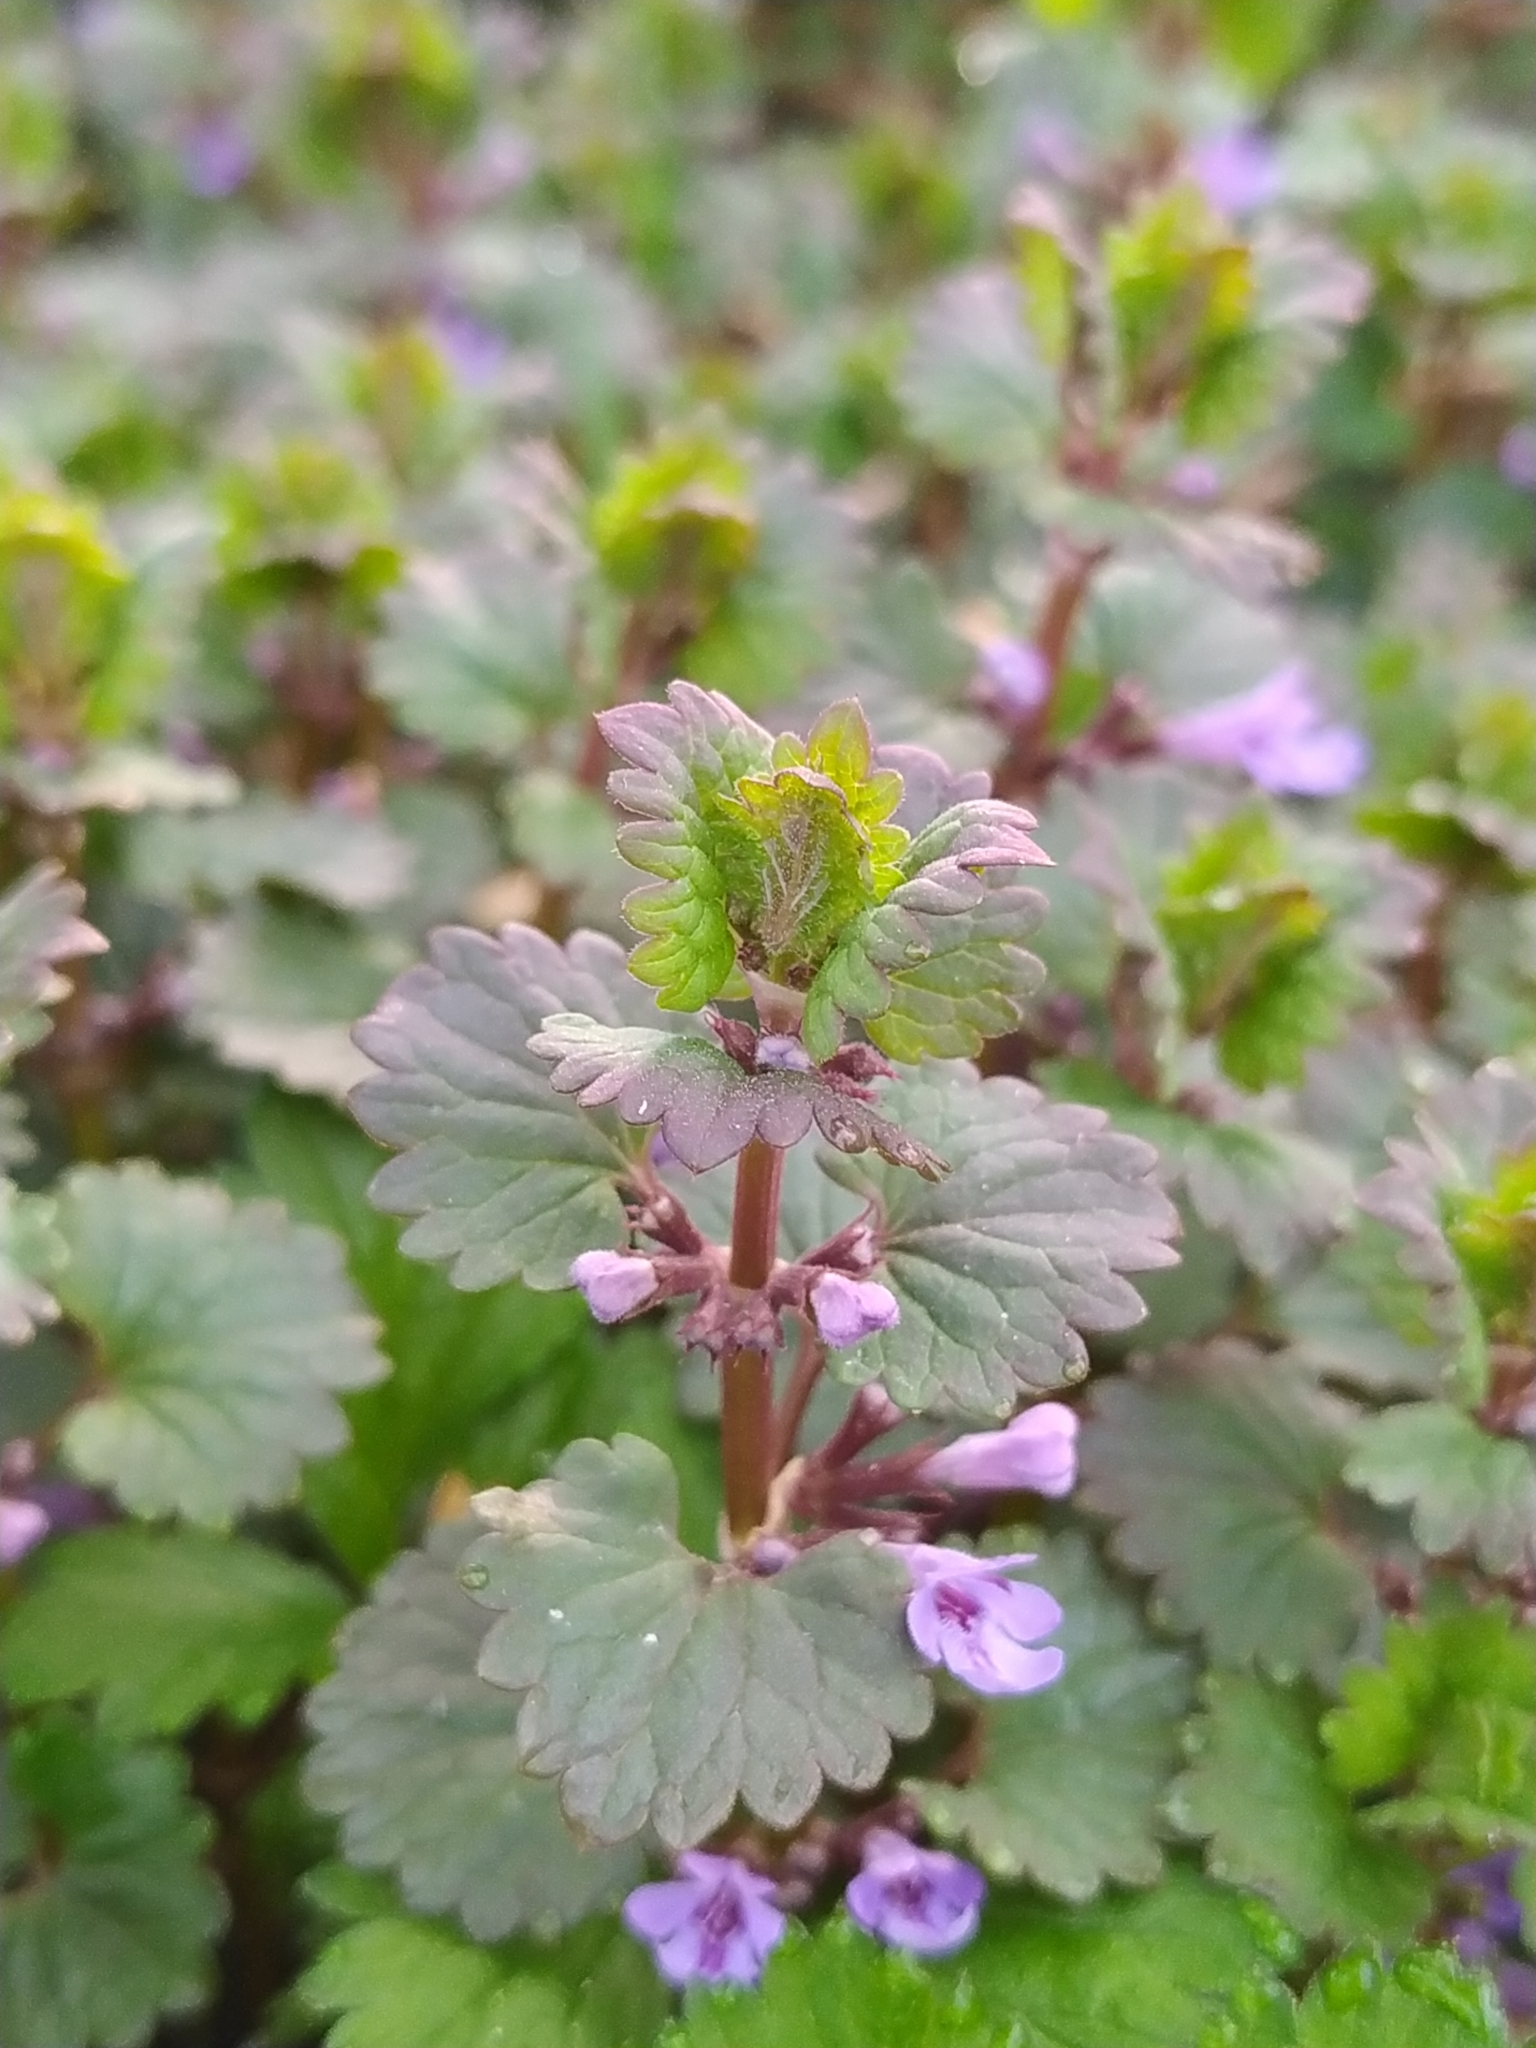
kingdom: Plantae
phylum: Tracheophyta
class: Magnoliopsida
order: Lamiales
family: Lamiaceae
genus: Glechoma
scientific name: Glechoma hederacea
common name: Ground ivy
